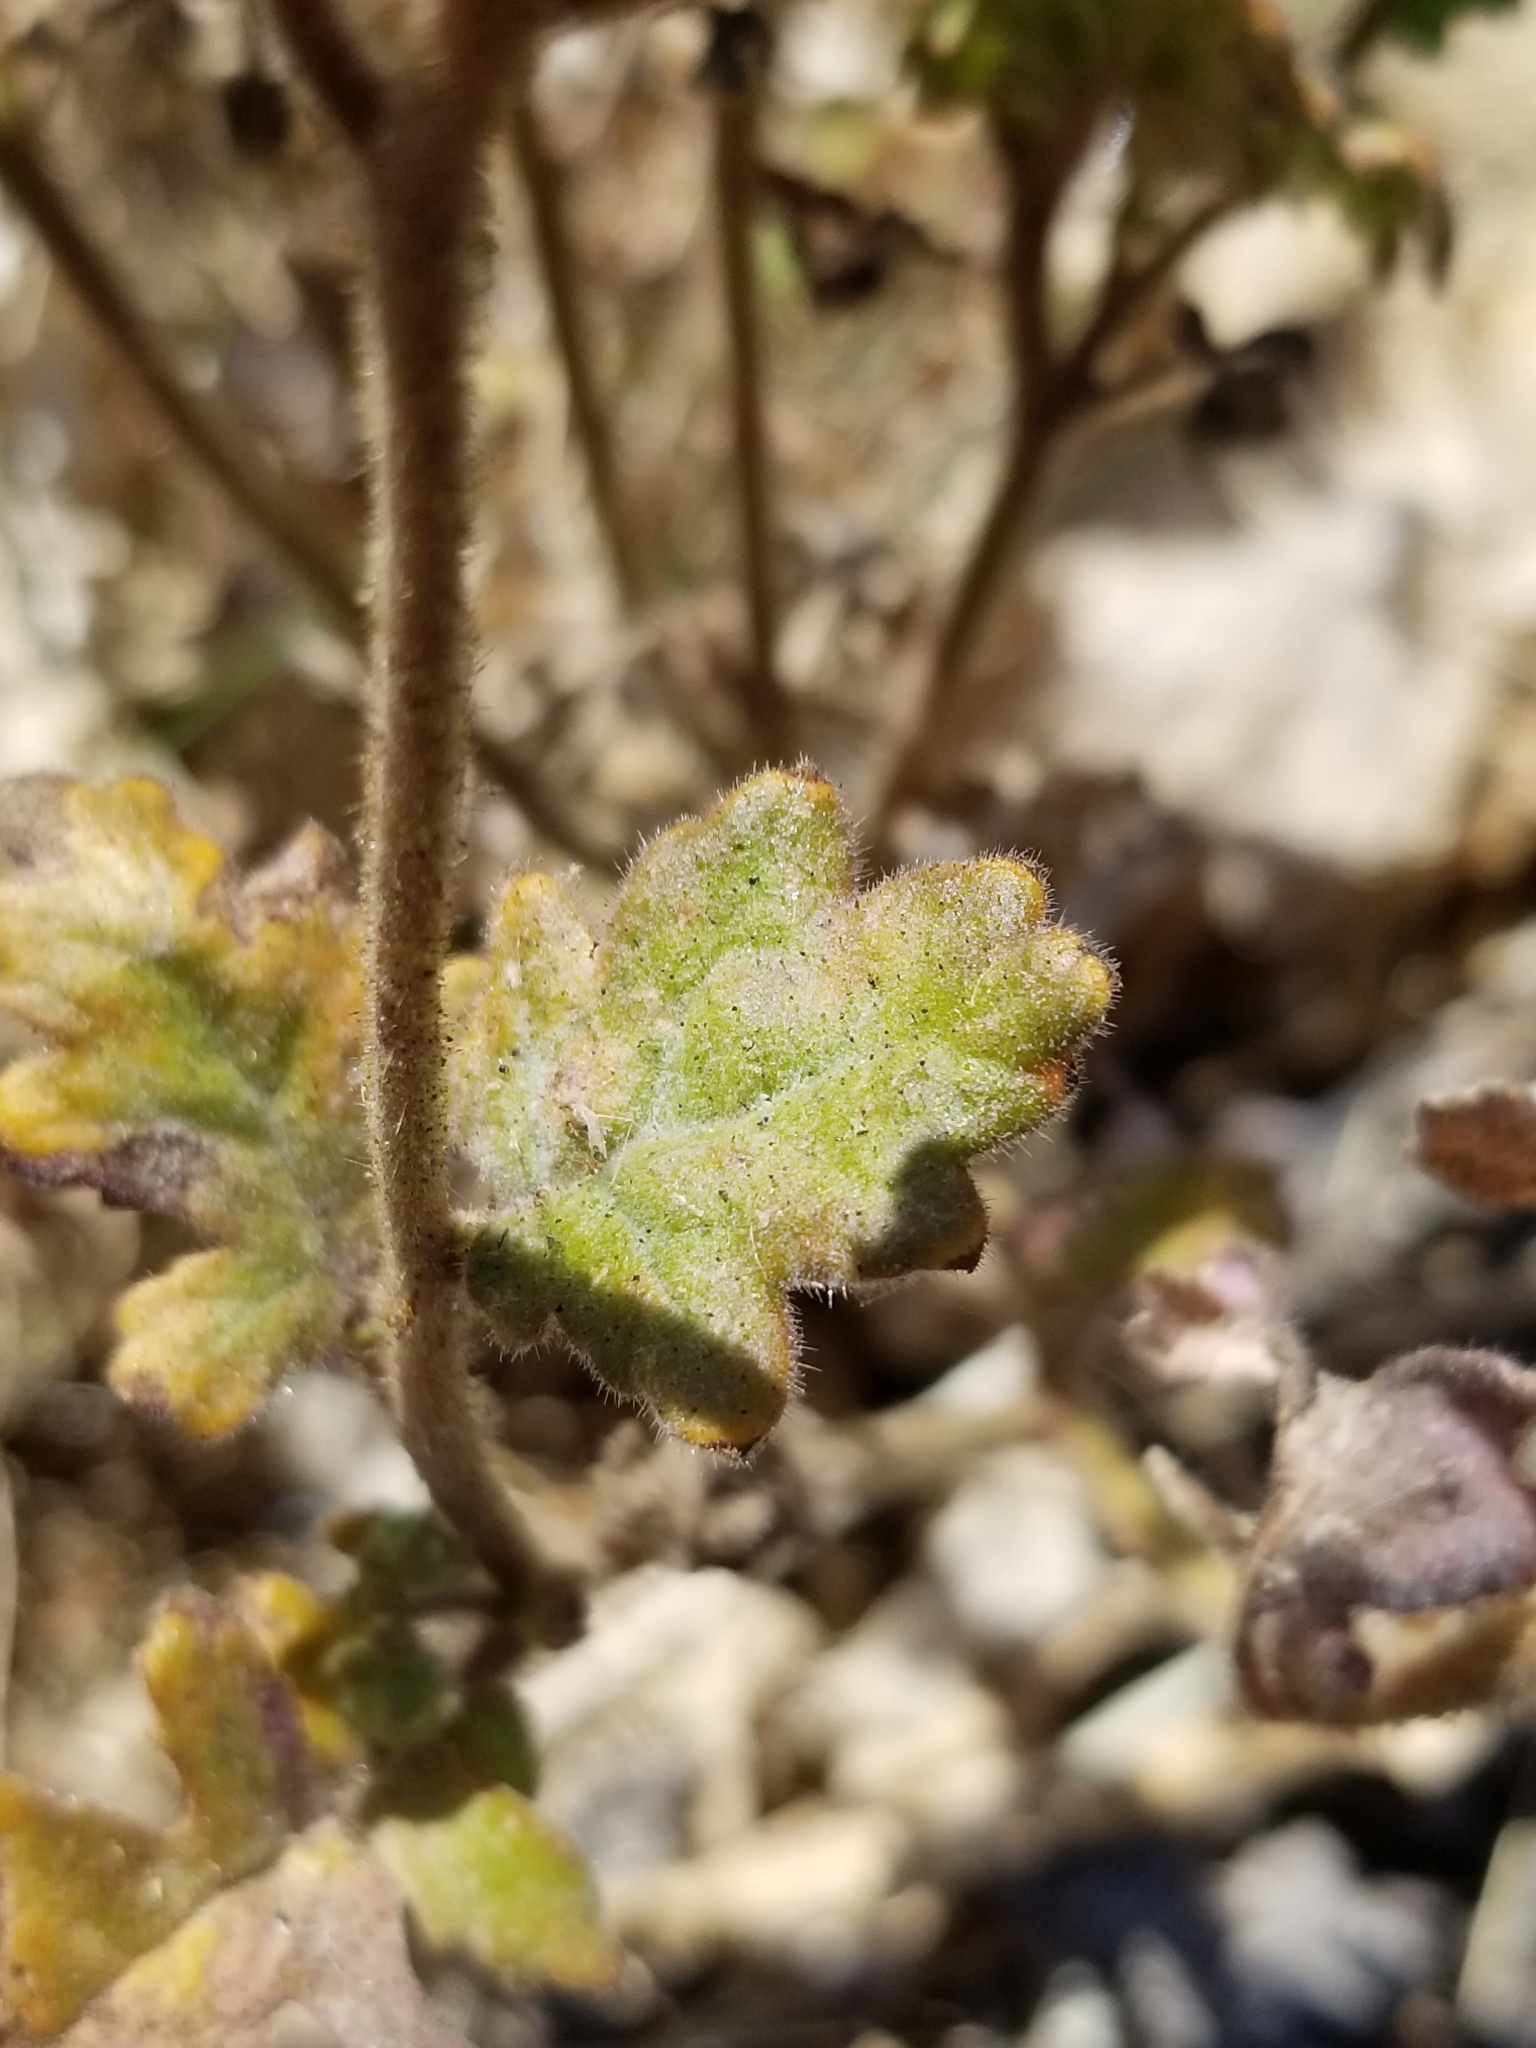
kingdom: Plantae
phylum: Tracheophyta
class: Magnoliopsida
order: Boraginales
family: Hydrophyllaceae
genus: Phacelia
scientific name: Phacelia crenulata
